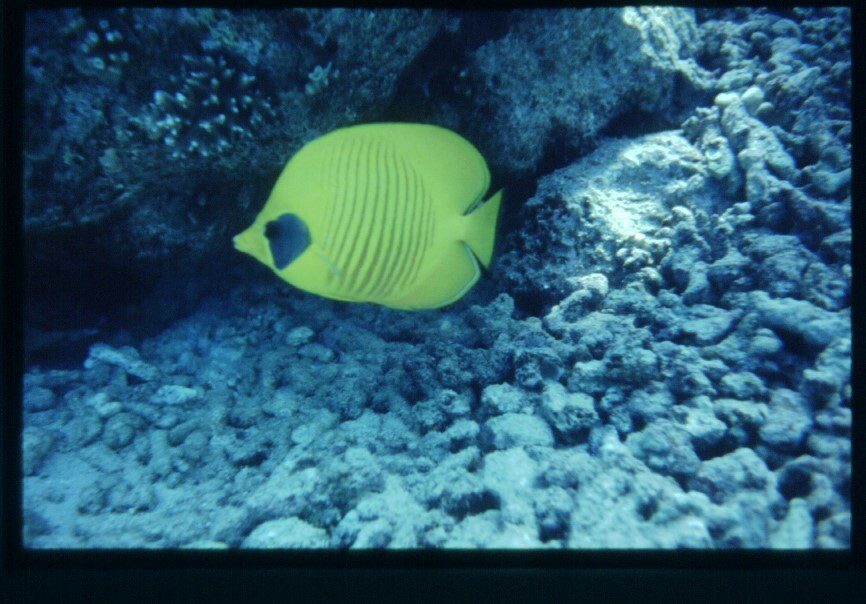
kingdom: Animalia
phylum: Chordata
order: Perciformes
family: Chaetodontidae
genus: Chaetodon
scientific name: Chaetodon semilarvatus
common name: Golden butterflyfish
